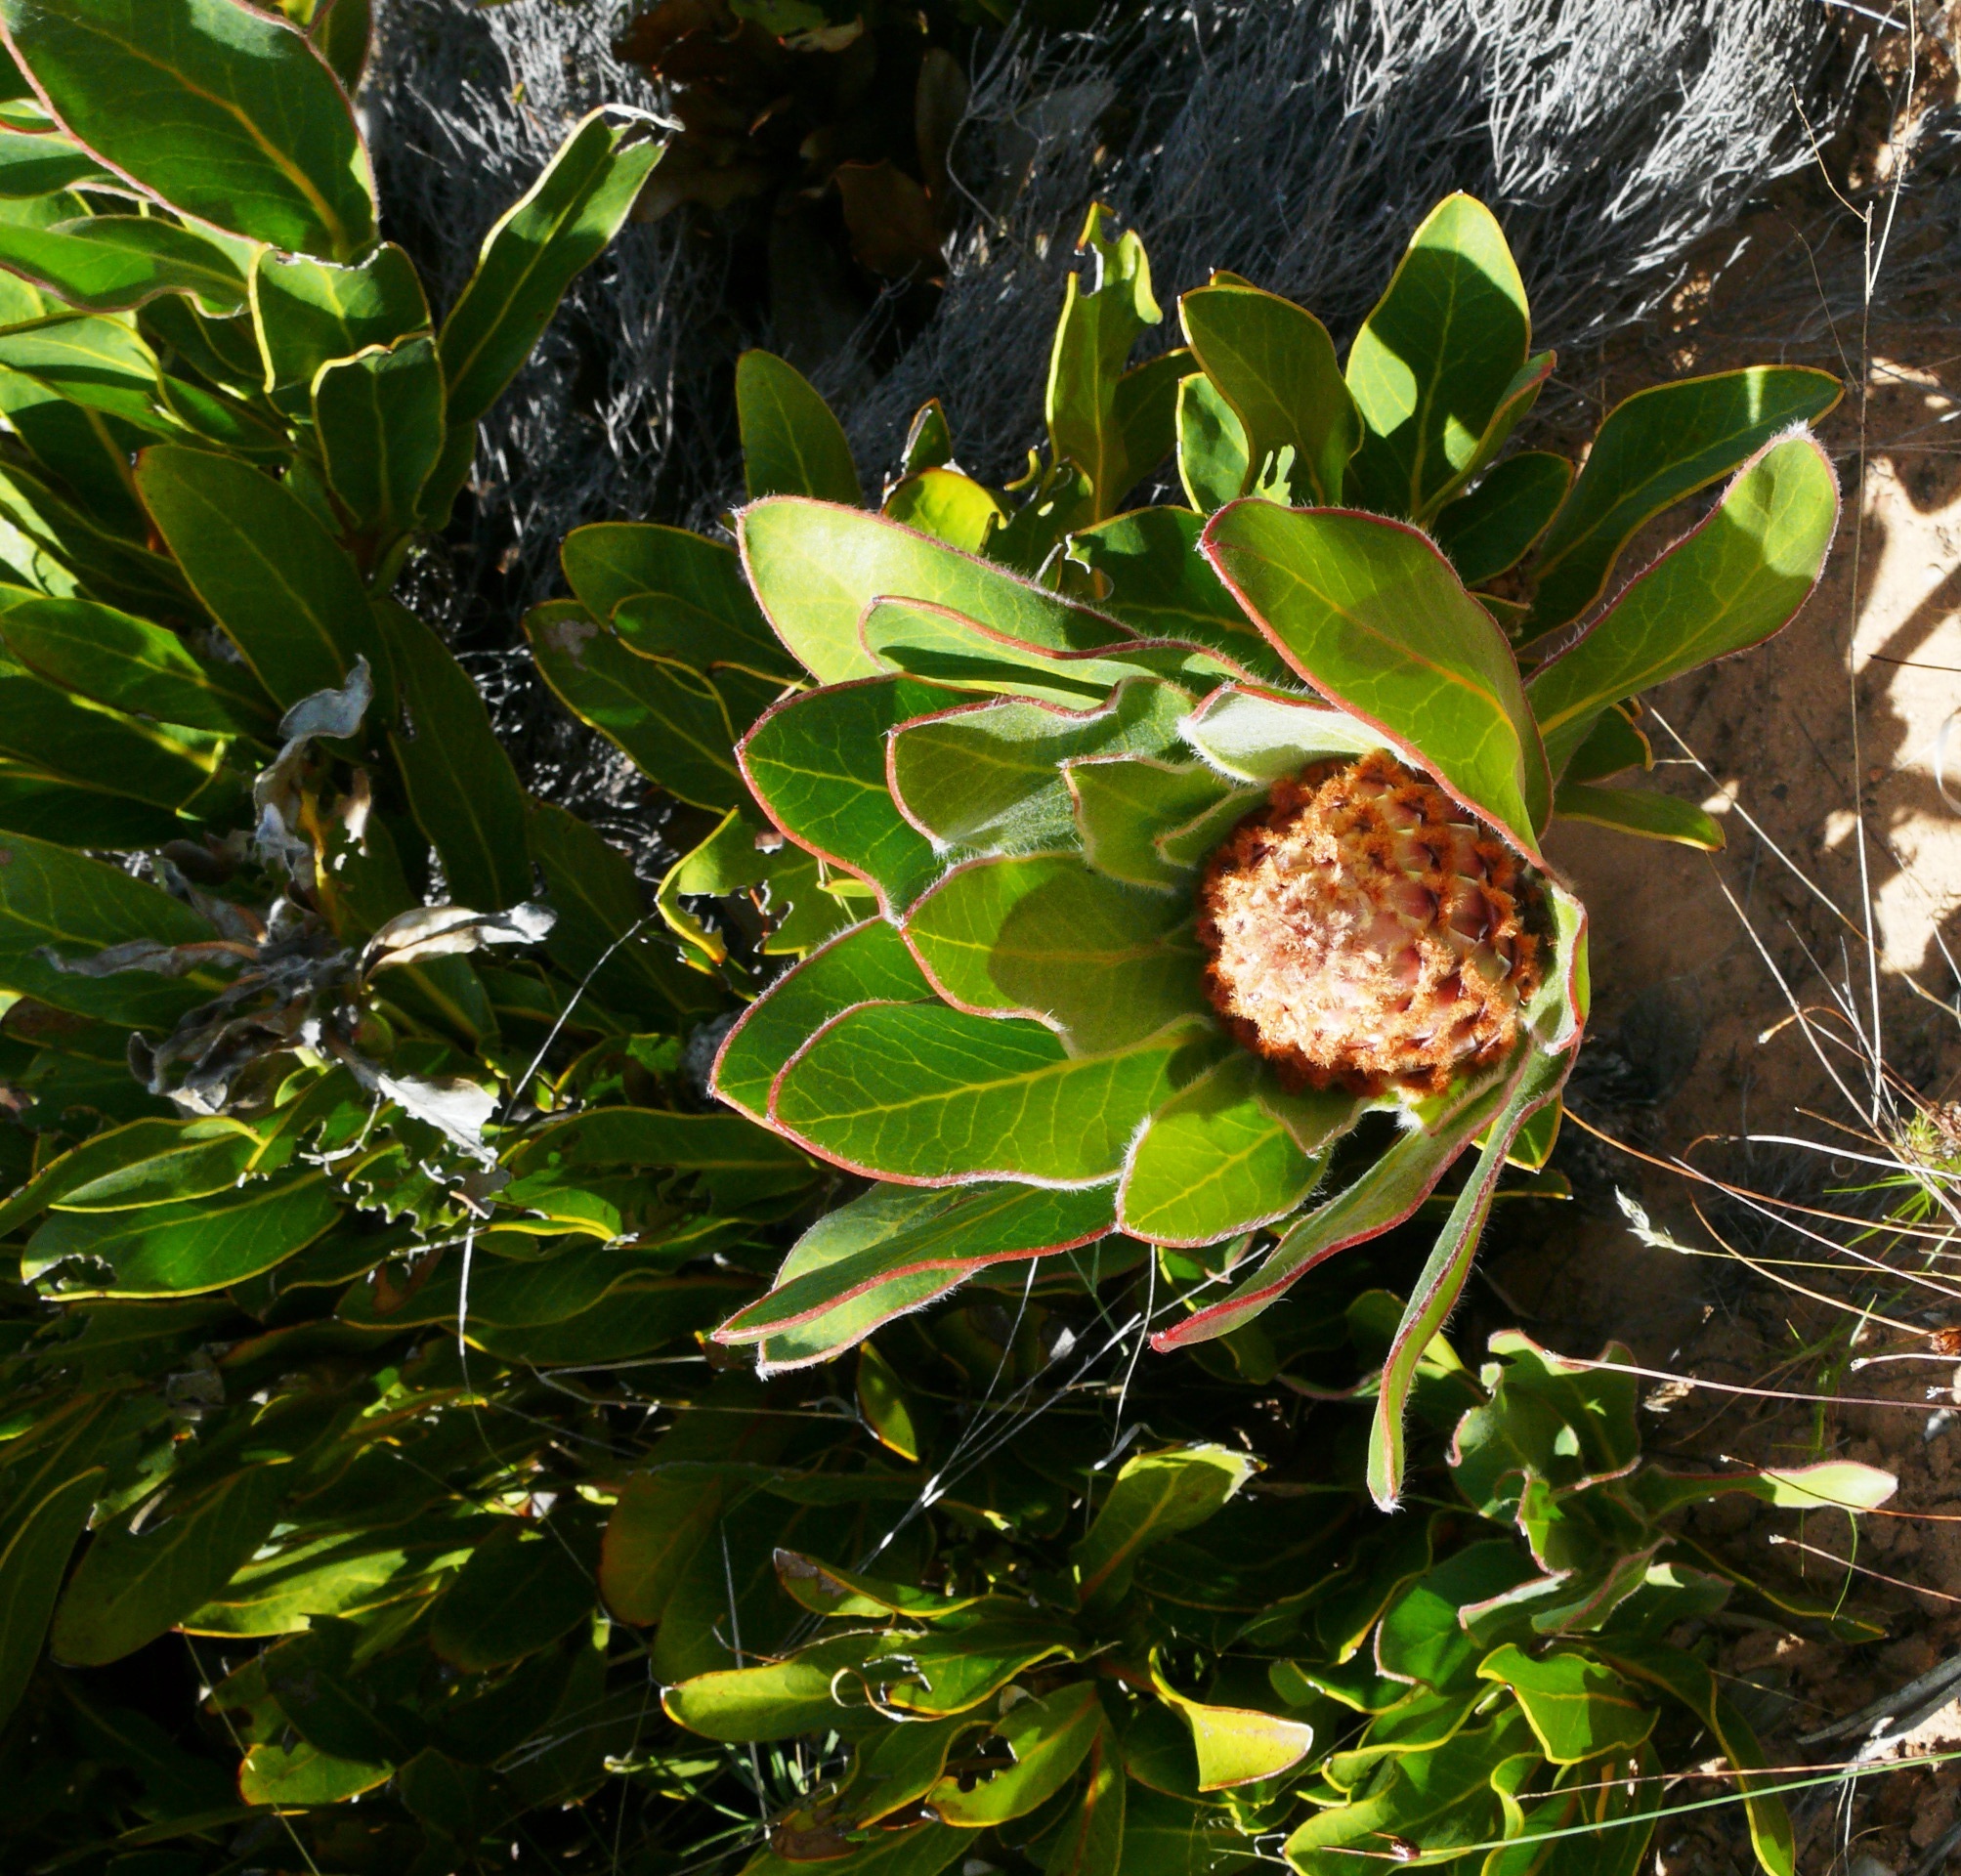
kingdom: Plantae
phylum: Tracheophyta
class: Magnoliopsida
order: Proteales
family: Proteaceae
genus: Protea
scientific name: Protea magnifica
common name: Bearded sugarbush
